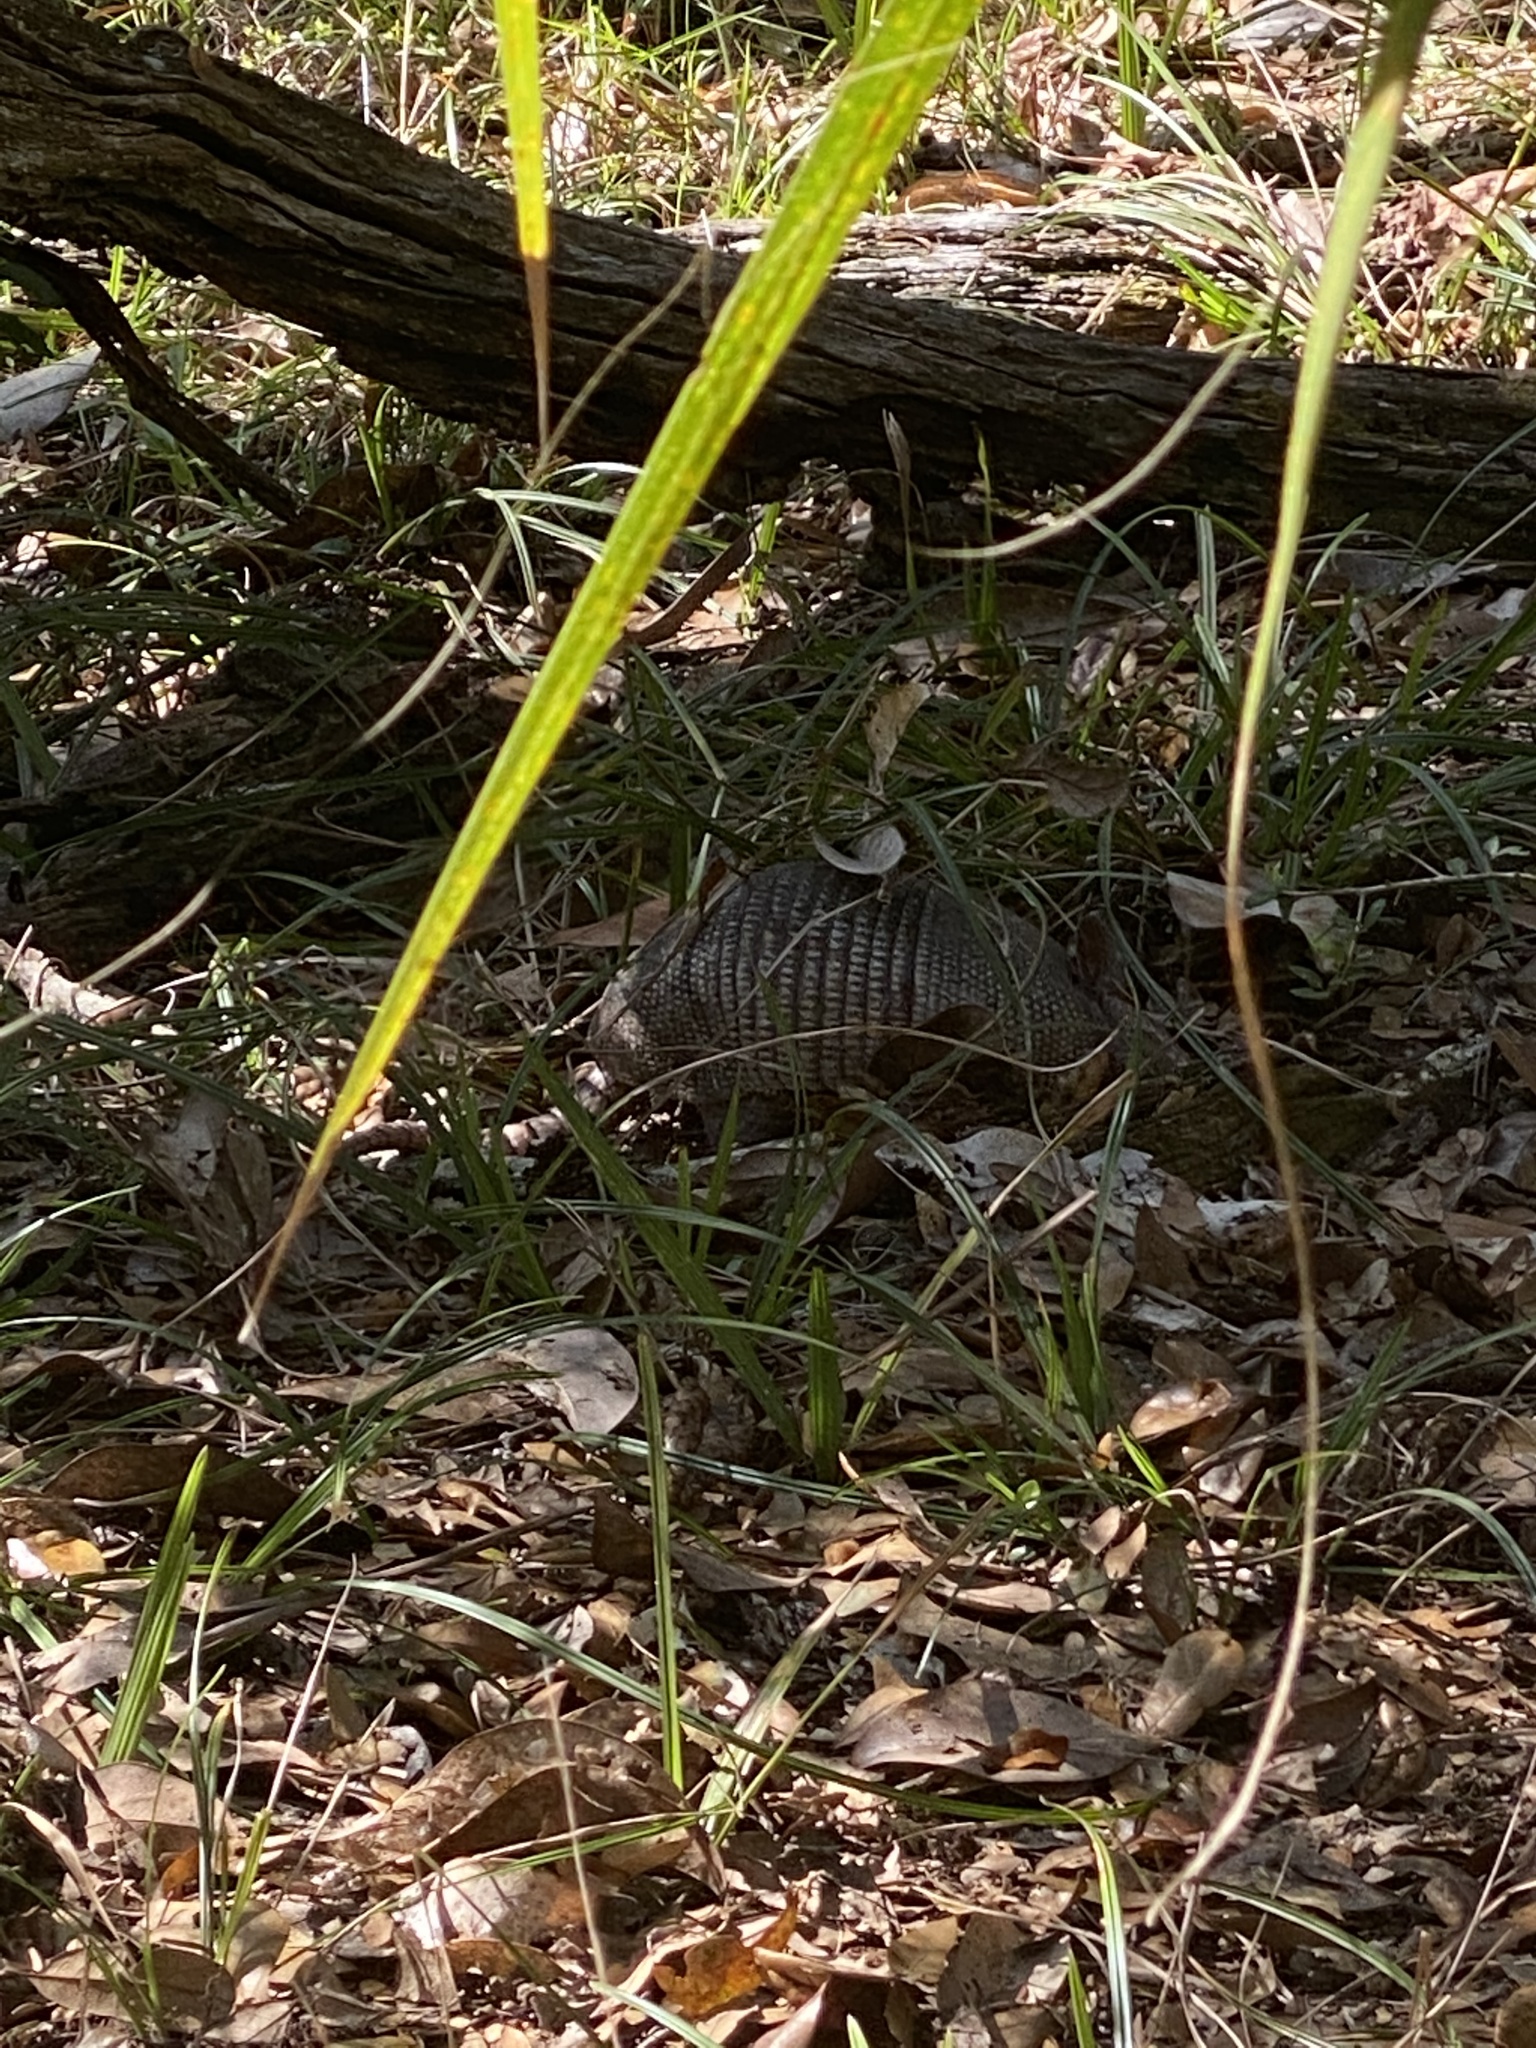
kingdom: Animalia
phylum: Chordata
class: Mammalia
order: Cingulata
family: Dasypodidae
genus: Dasypus
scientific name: Dasypus novemcinctus
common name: Nine-banded armadillo
